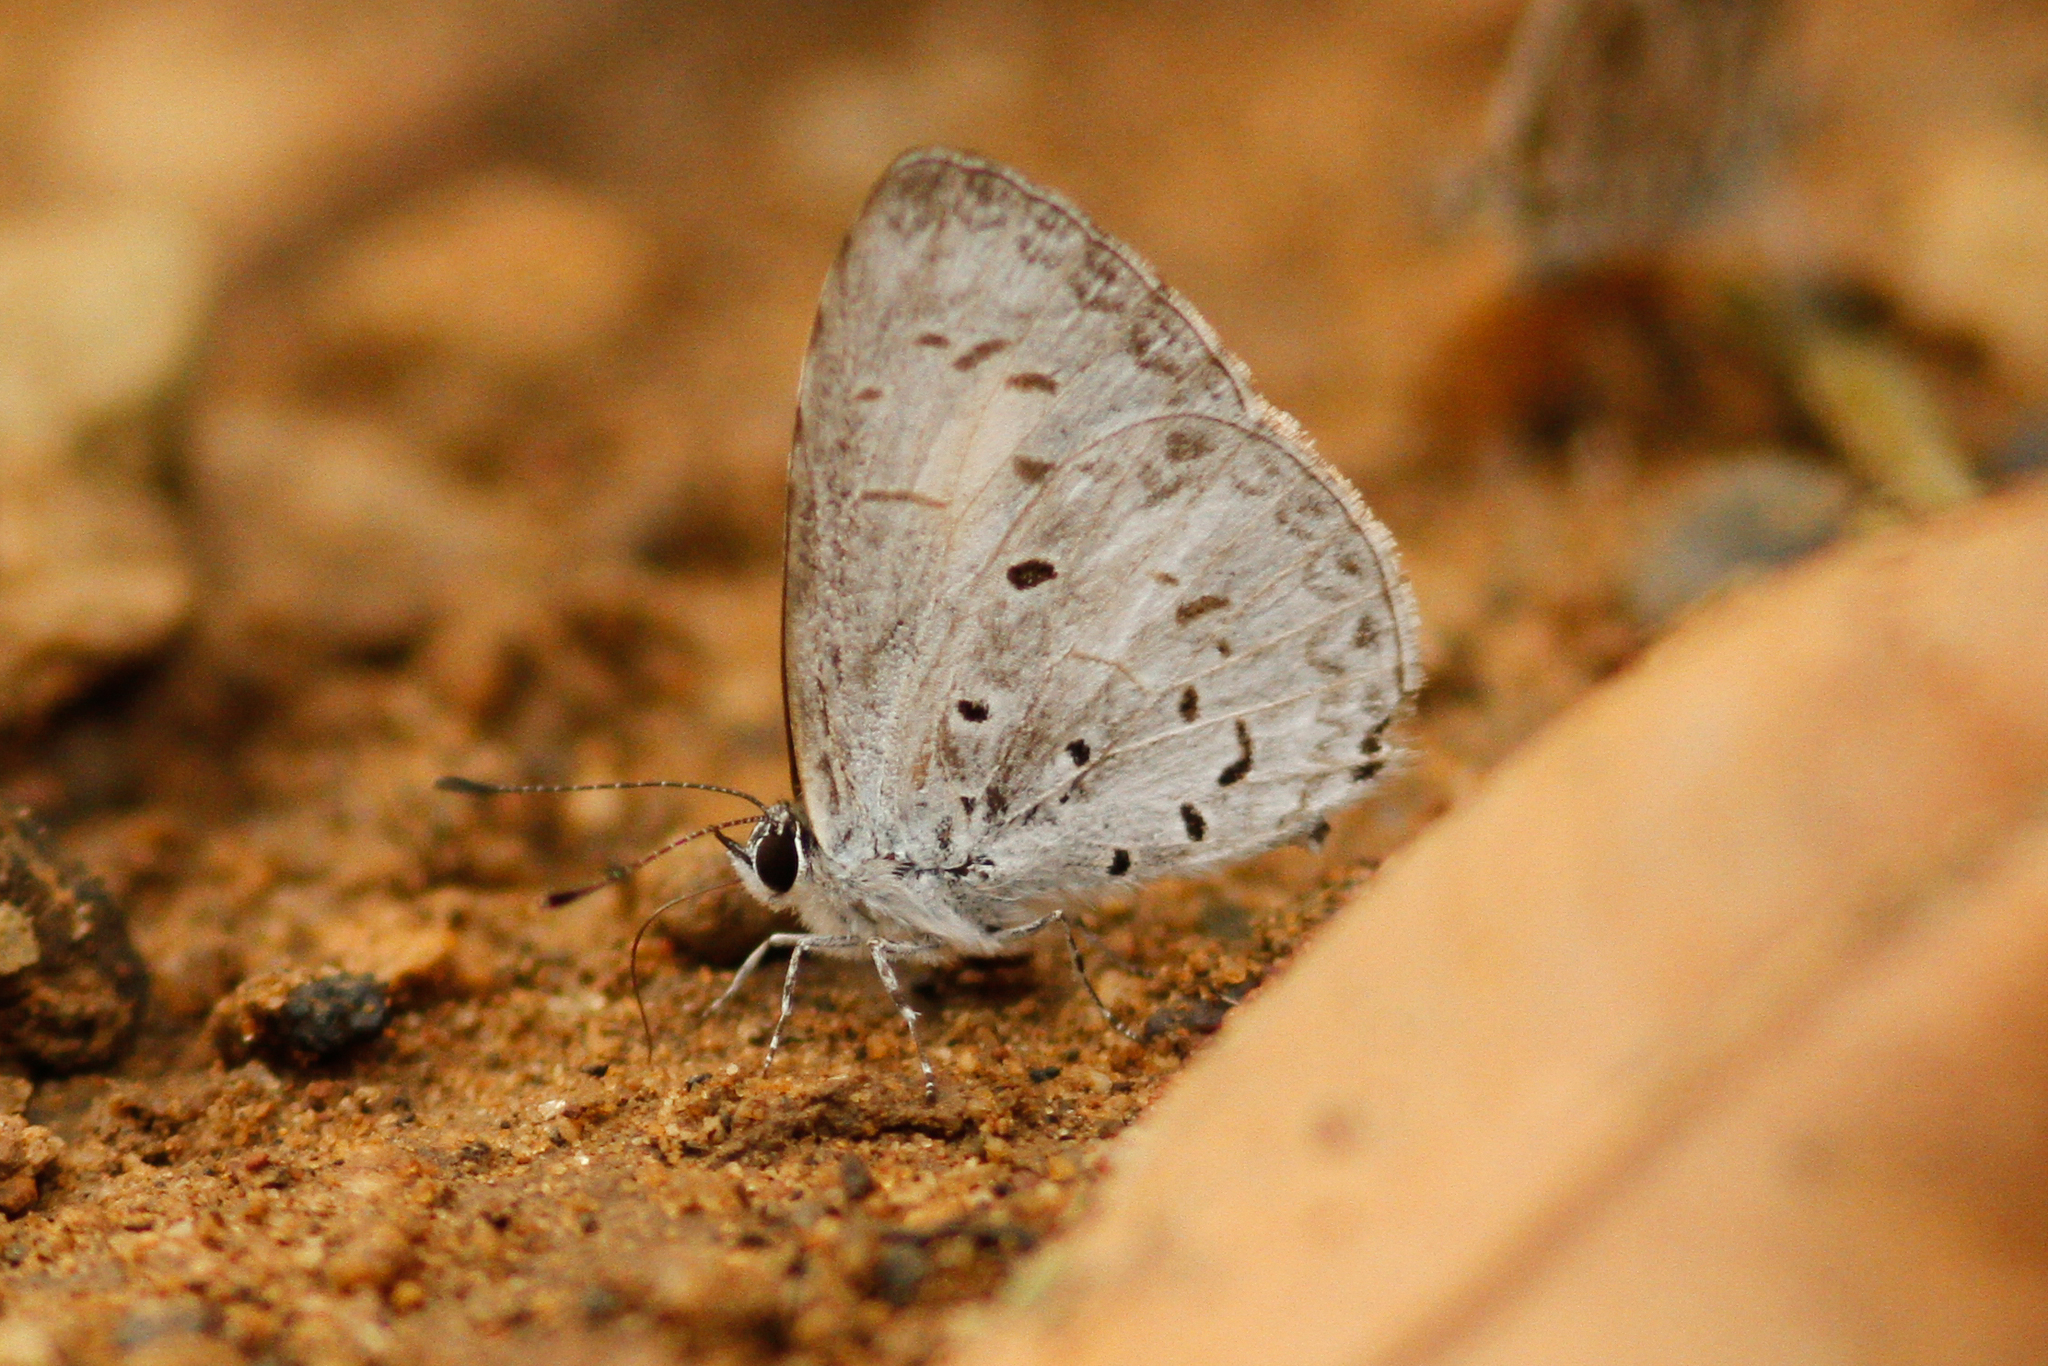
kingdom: Animalia
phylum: Arthropoda
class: Insecta
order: Lepidoptera
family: Lycaenidae
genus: Acytolepis
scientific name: Acytolepis puspa
